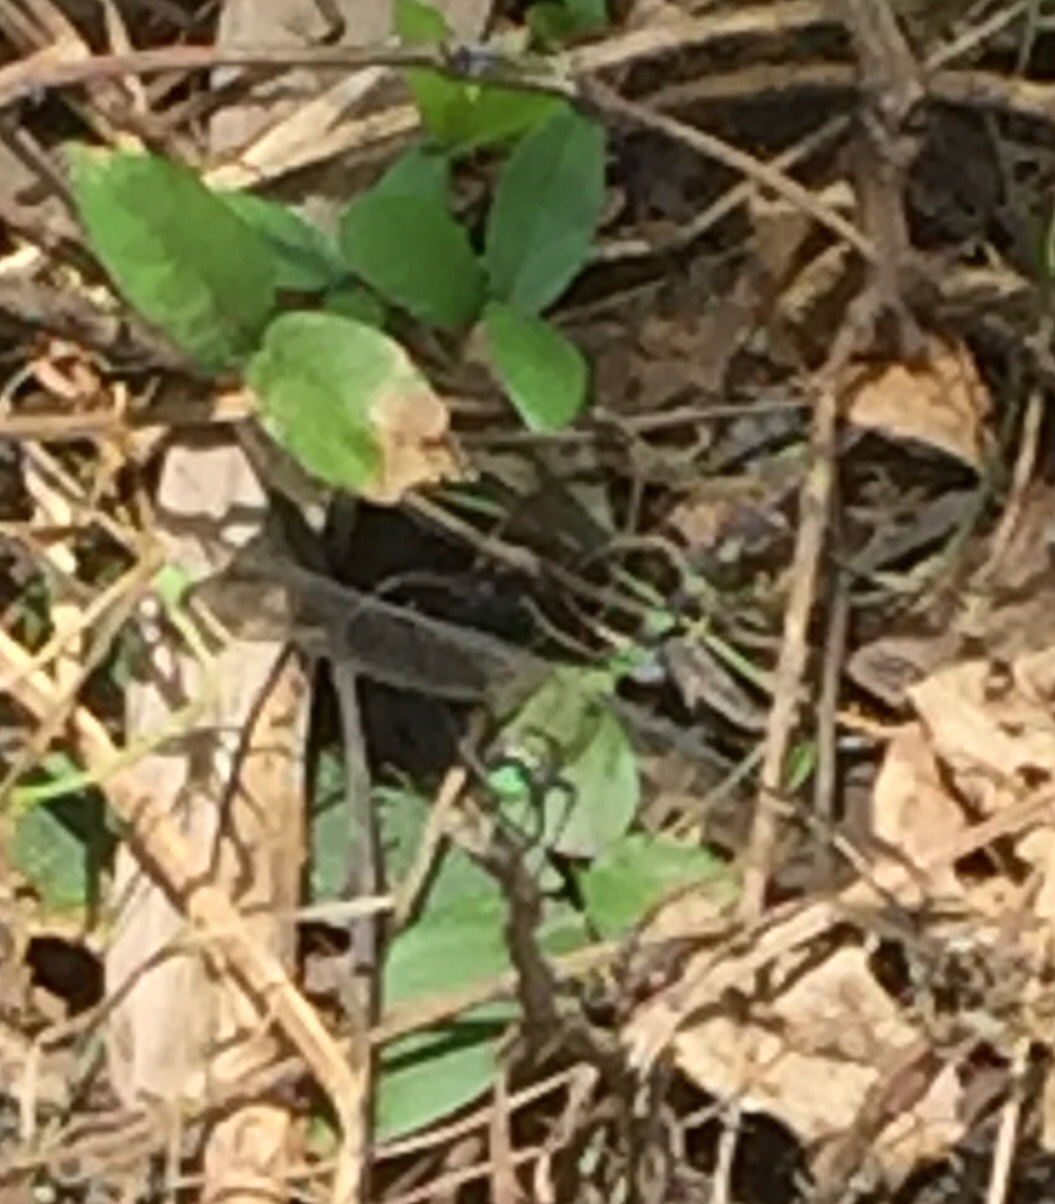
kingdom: Animalia
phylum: Arthropoda
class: Insecta
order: Odonata
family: Libellulidae
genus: Erythemis
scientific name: Erythemis vesiculosa
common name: Great pondhawk
